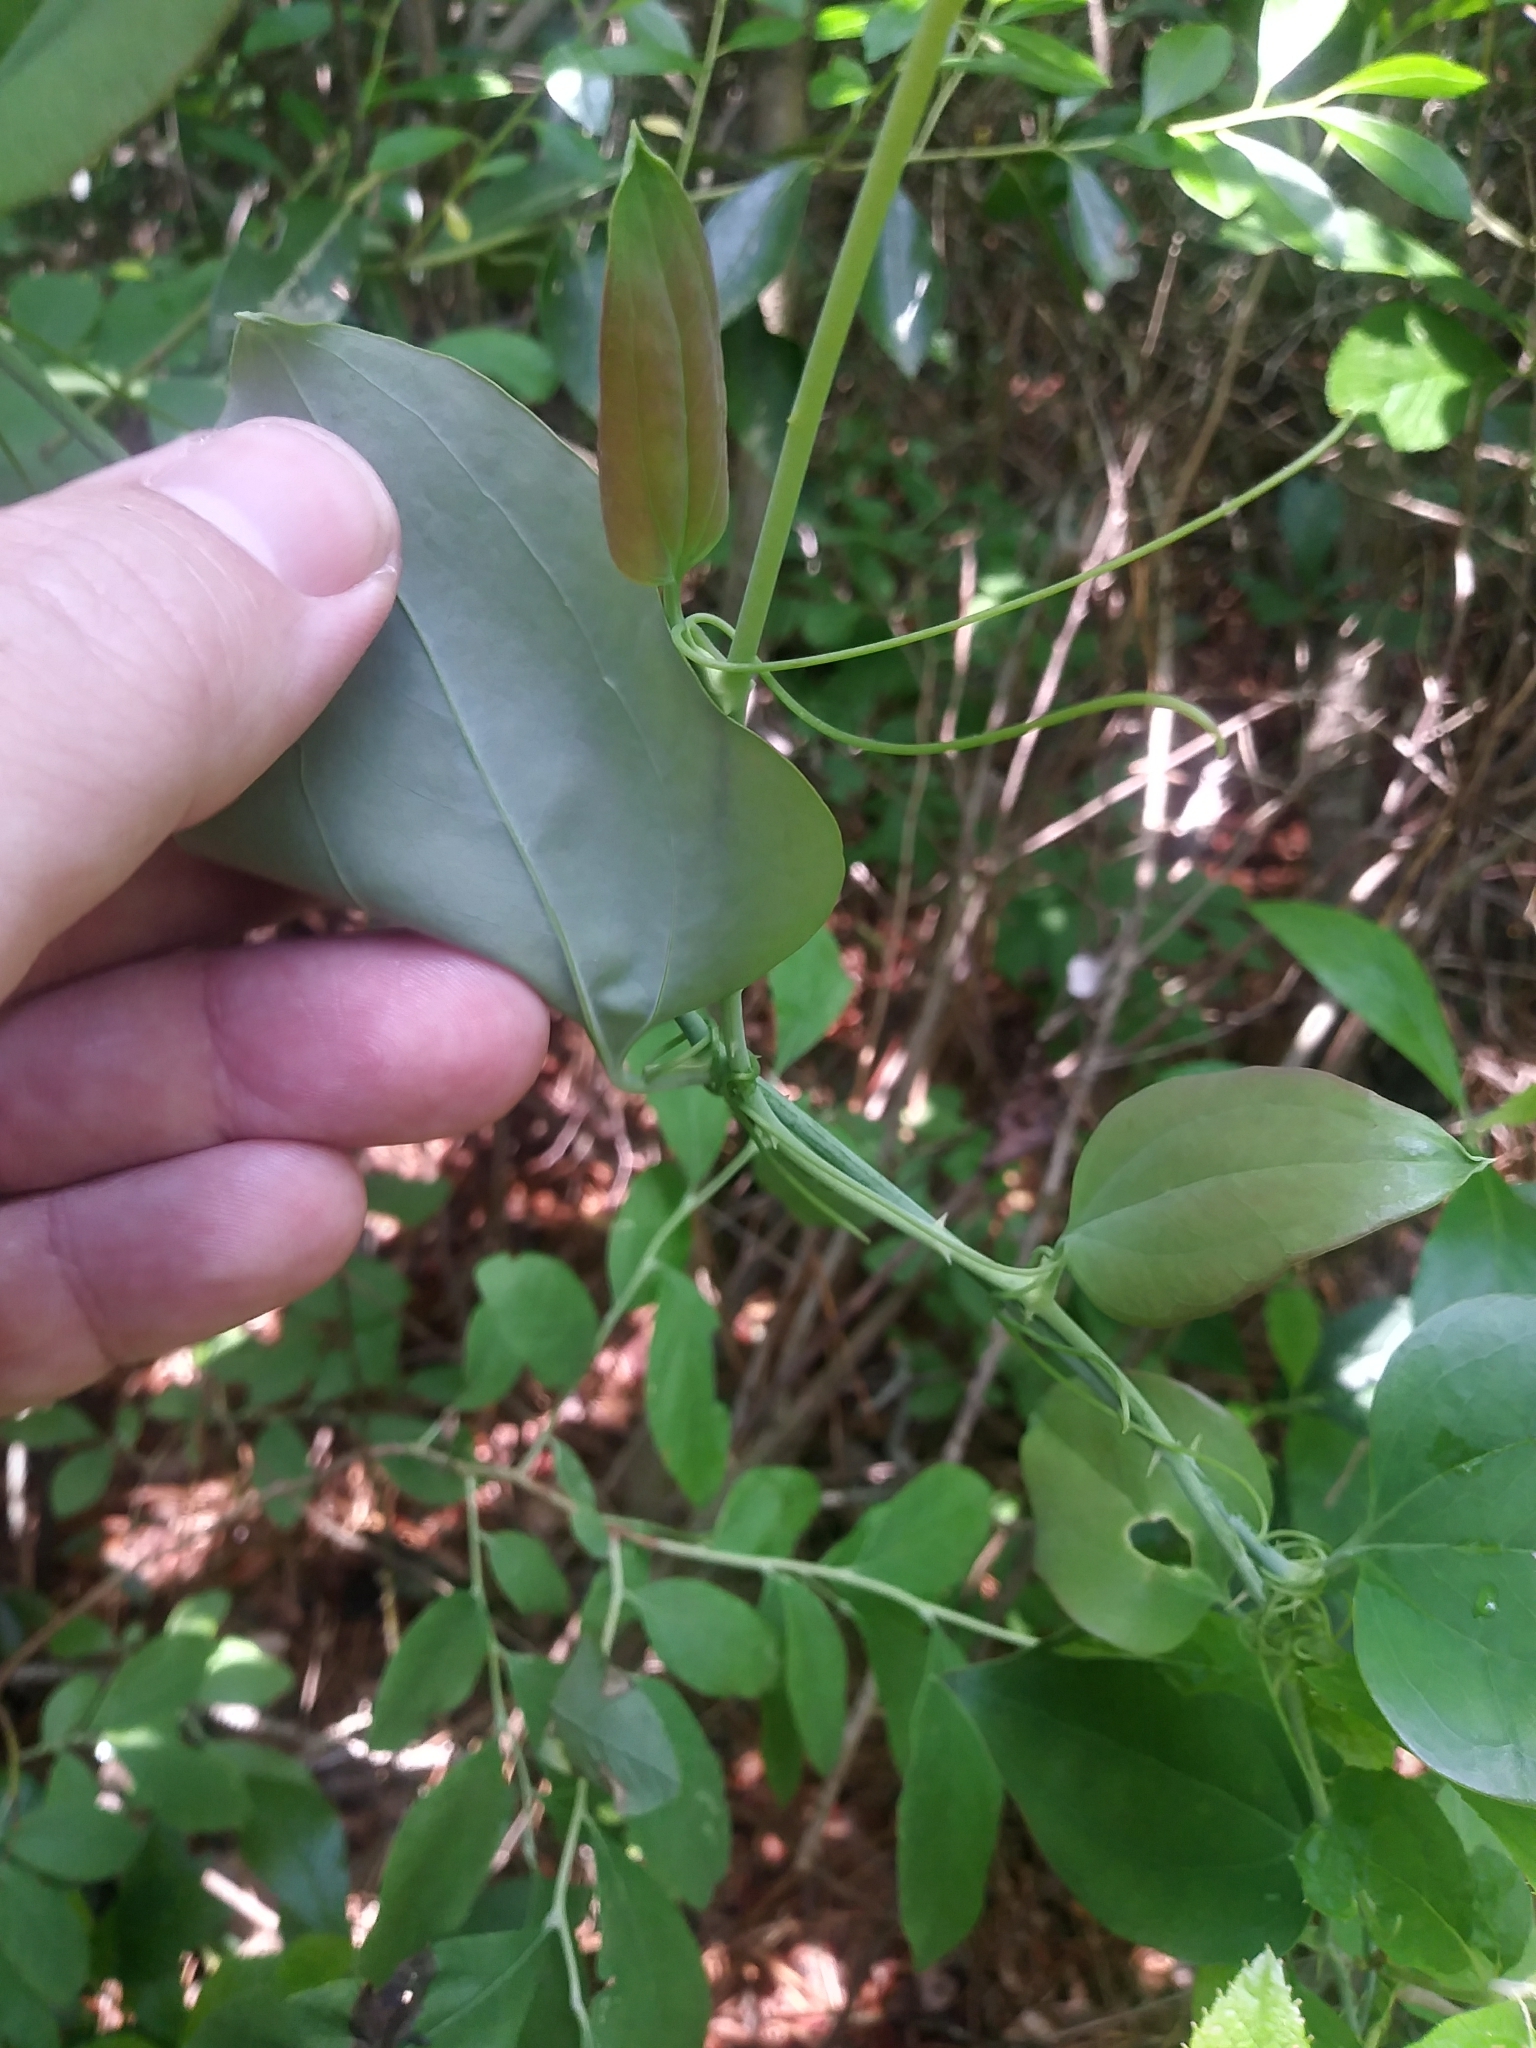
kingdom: Plantae
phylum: Tracheophyta
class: Liliopsida
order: Liliales
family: Smilacaceae
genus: Smilax
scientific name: Smilax glauca
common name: Cat greenbrier
